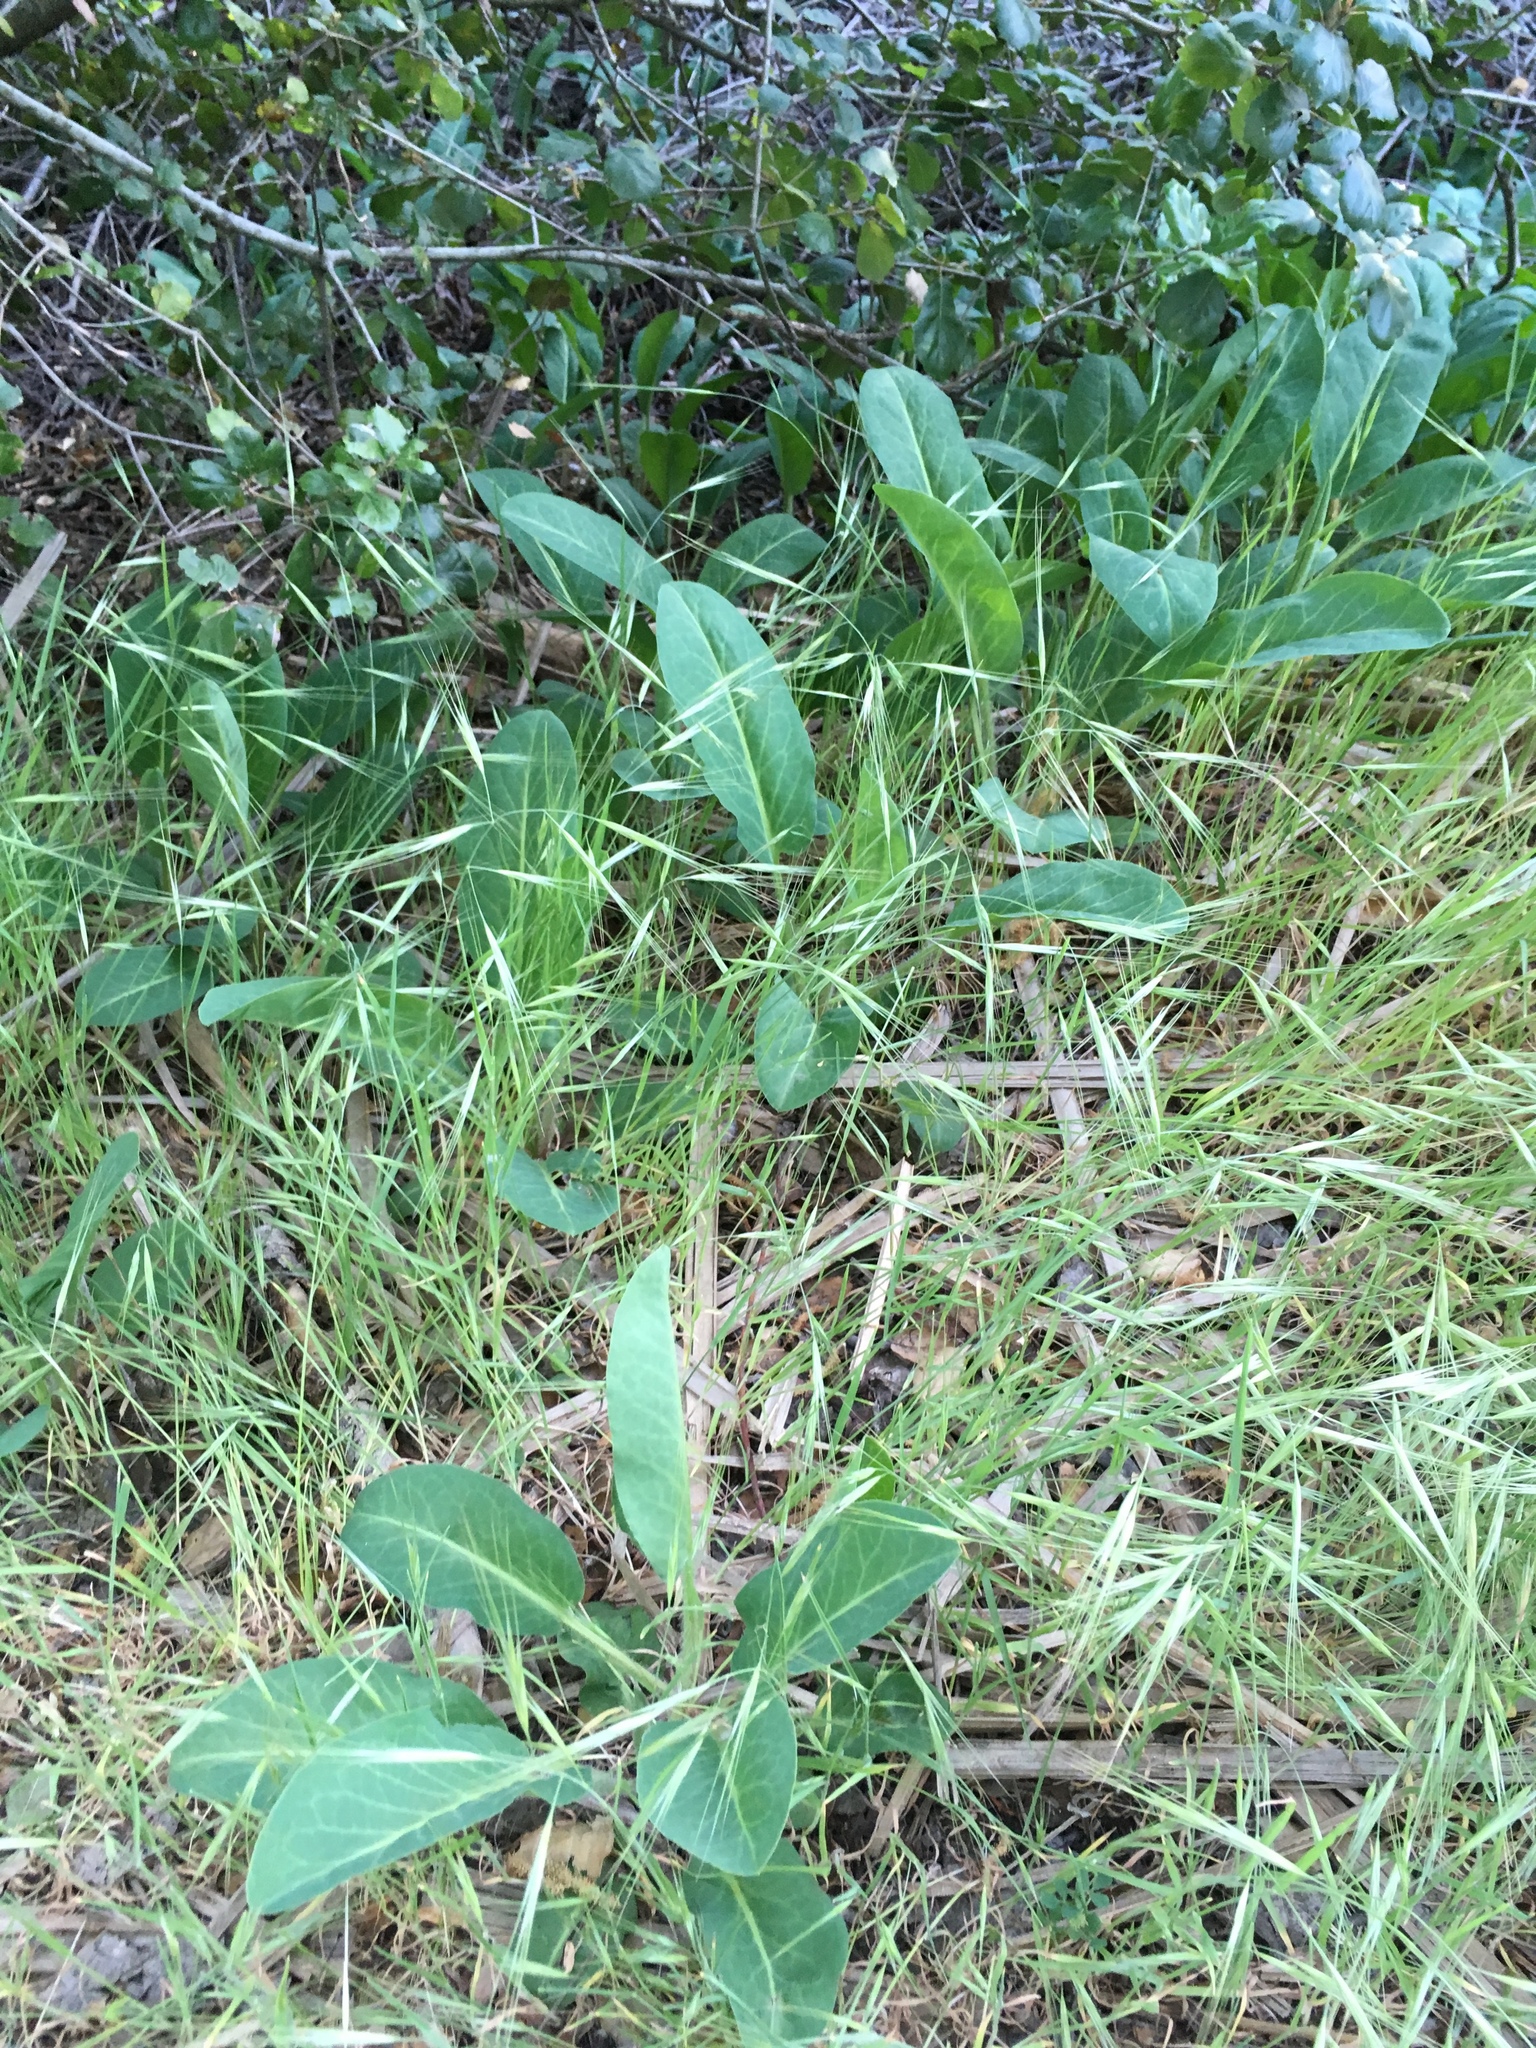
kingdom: Plantae
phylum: Tracheophyta
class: Magnoliopsida
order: Piperales
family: Saururaceae
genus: Anemopsis
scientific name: Anemopsis californica
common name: Apache-beads
